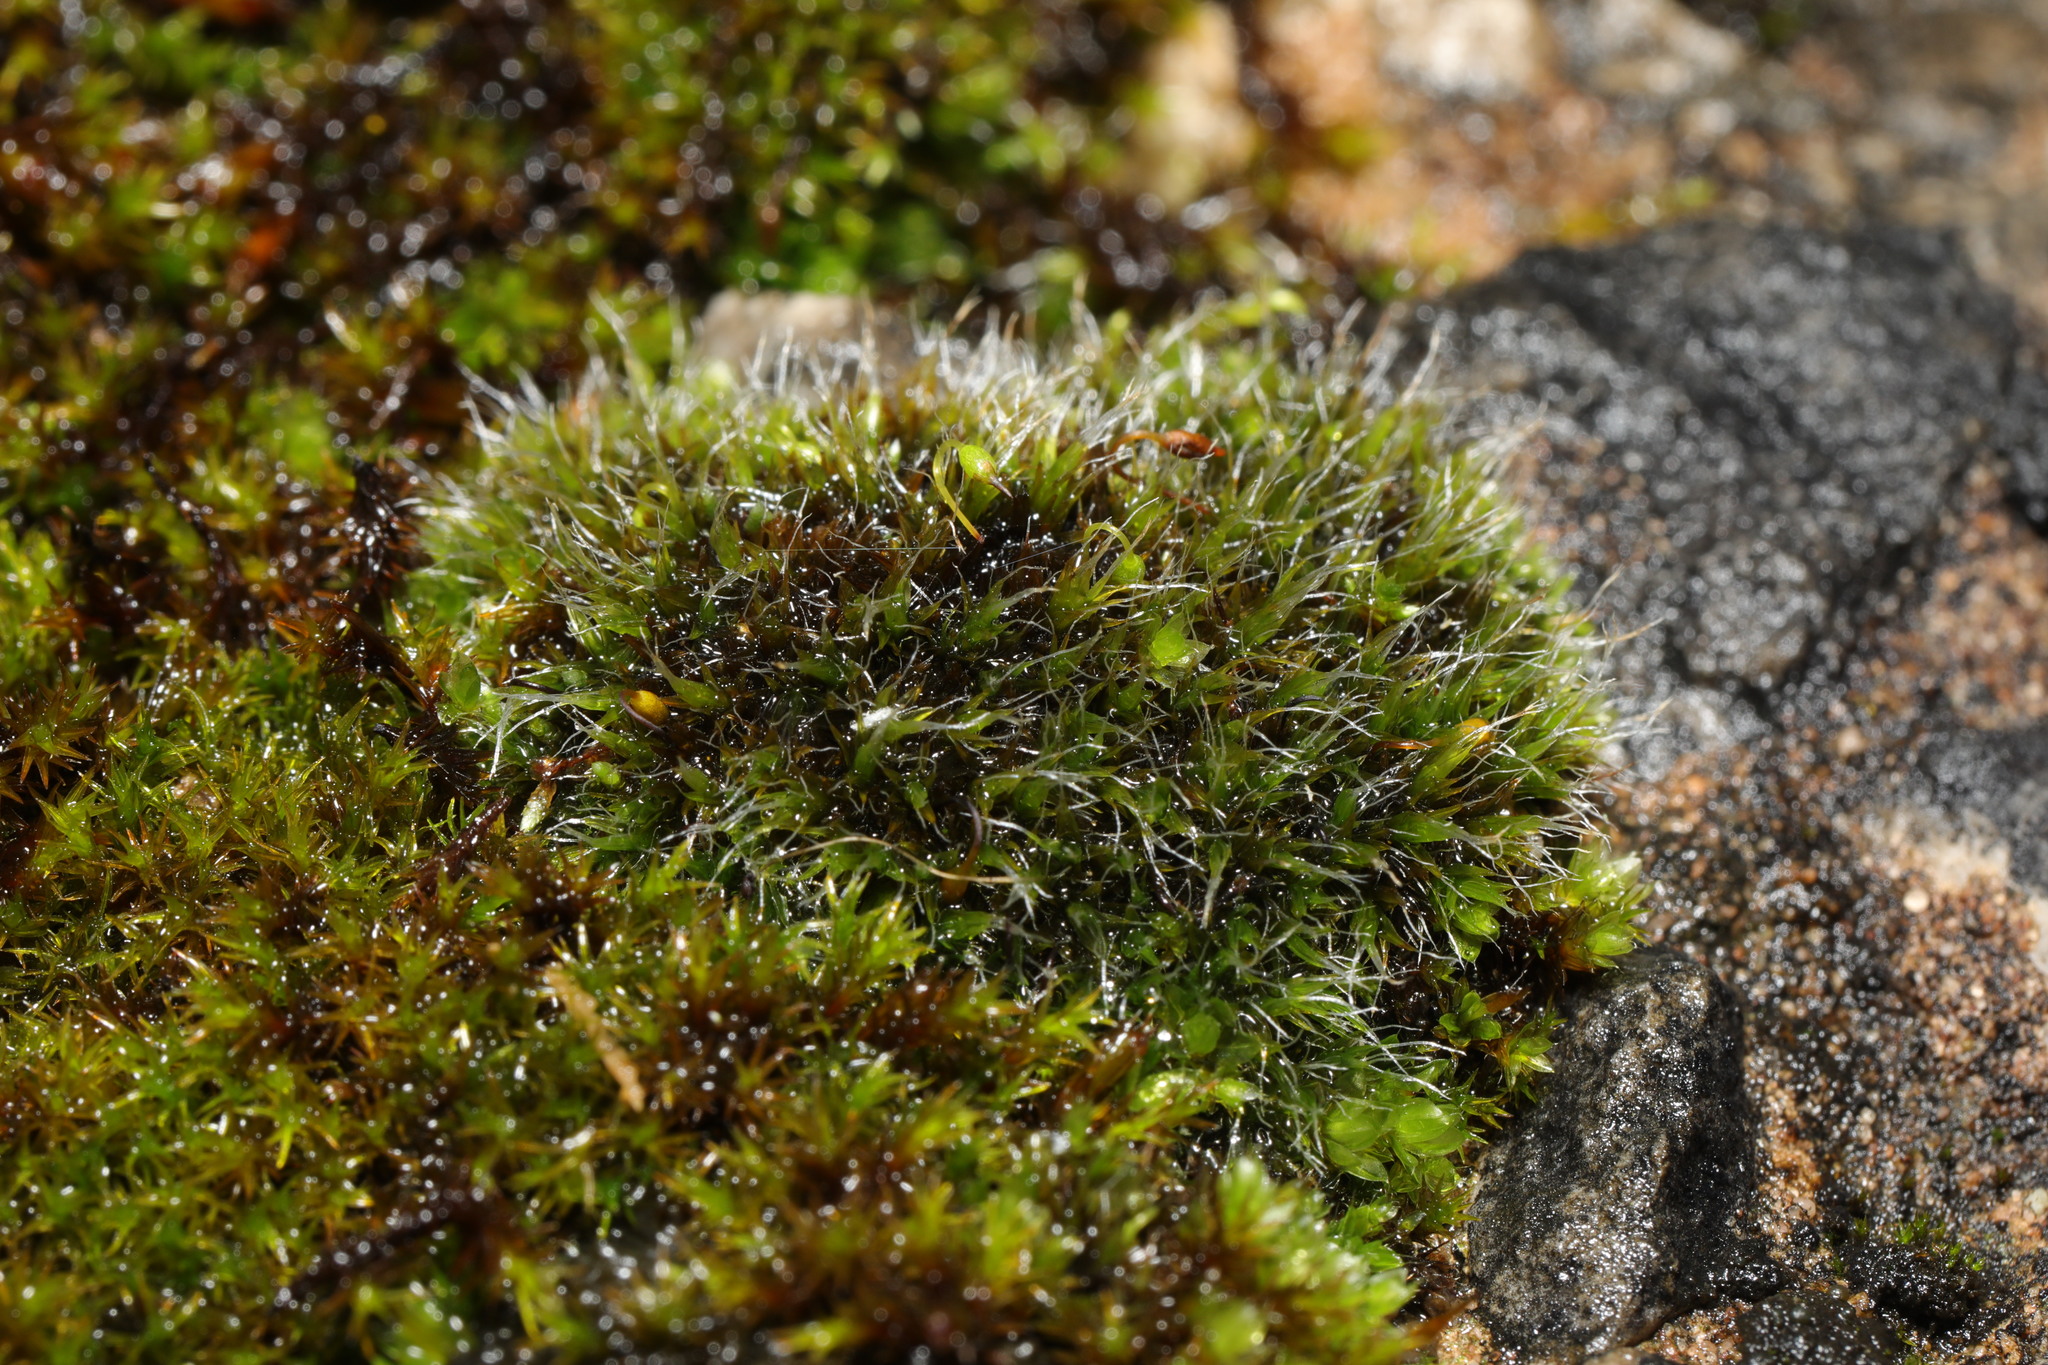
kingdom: Plantae
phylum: Bryophyta
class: Bryopsida
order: Grimmiales
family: Grimmiaceae
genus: Grimmia
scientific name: Grimmia pulvinata
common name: Grey-cushioned grimmia
